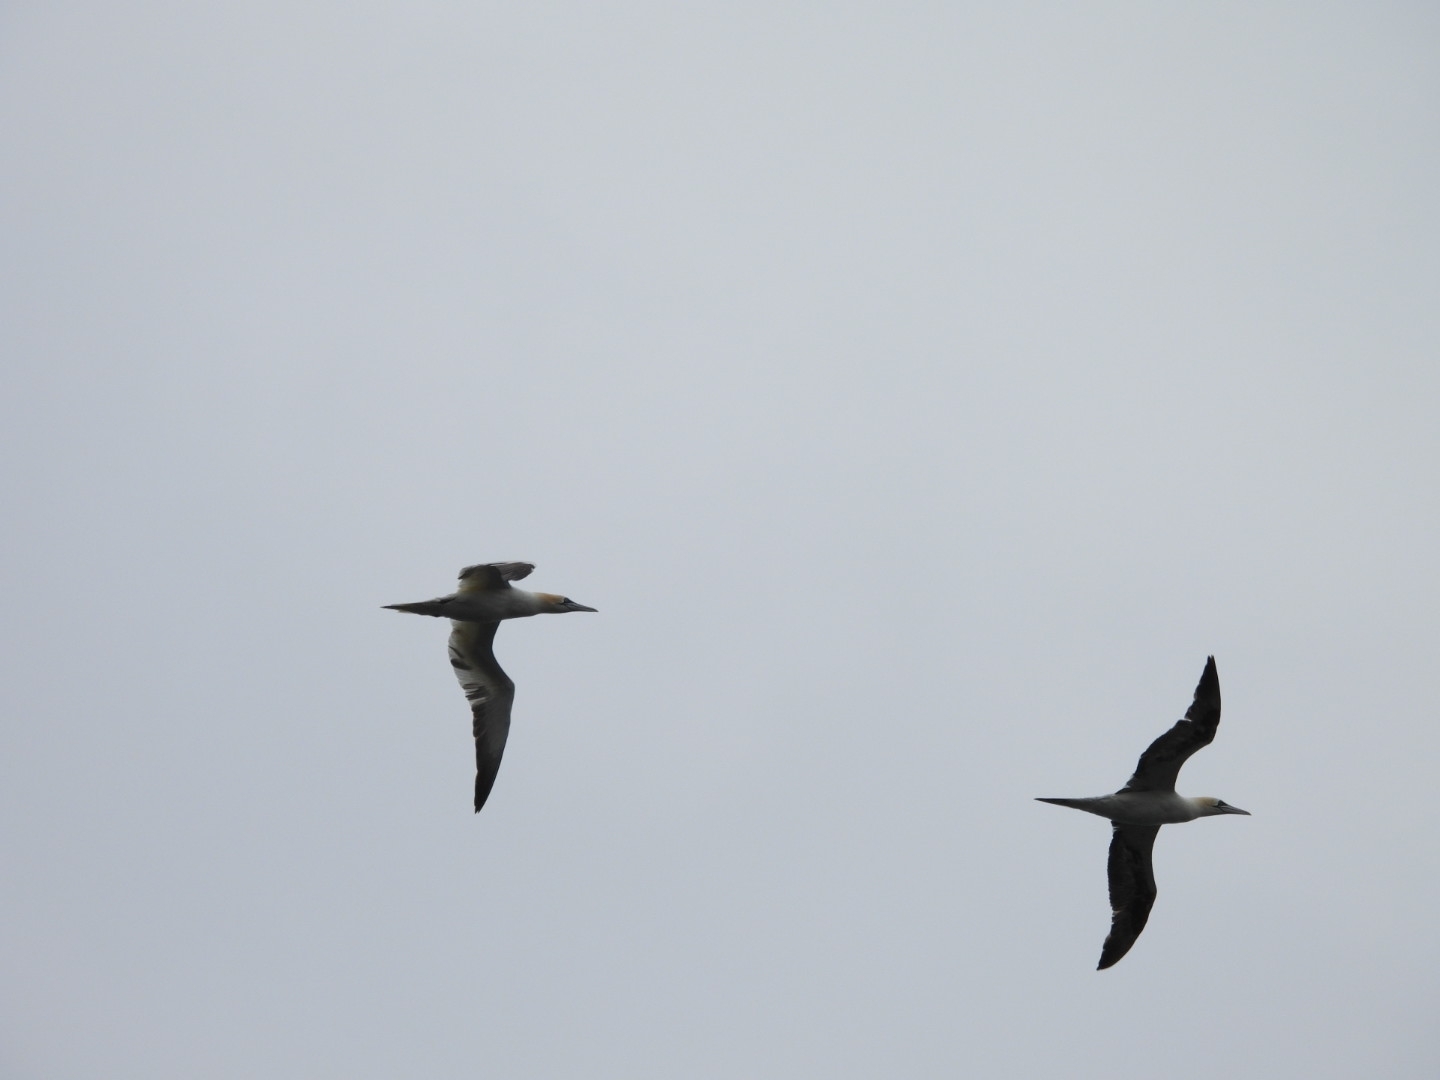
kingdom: Animalia
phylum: Chordata
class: Aves
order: Suliformes
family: Sulidae
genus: Morus
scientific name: Morus bassanus
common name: Northern gannet
